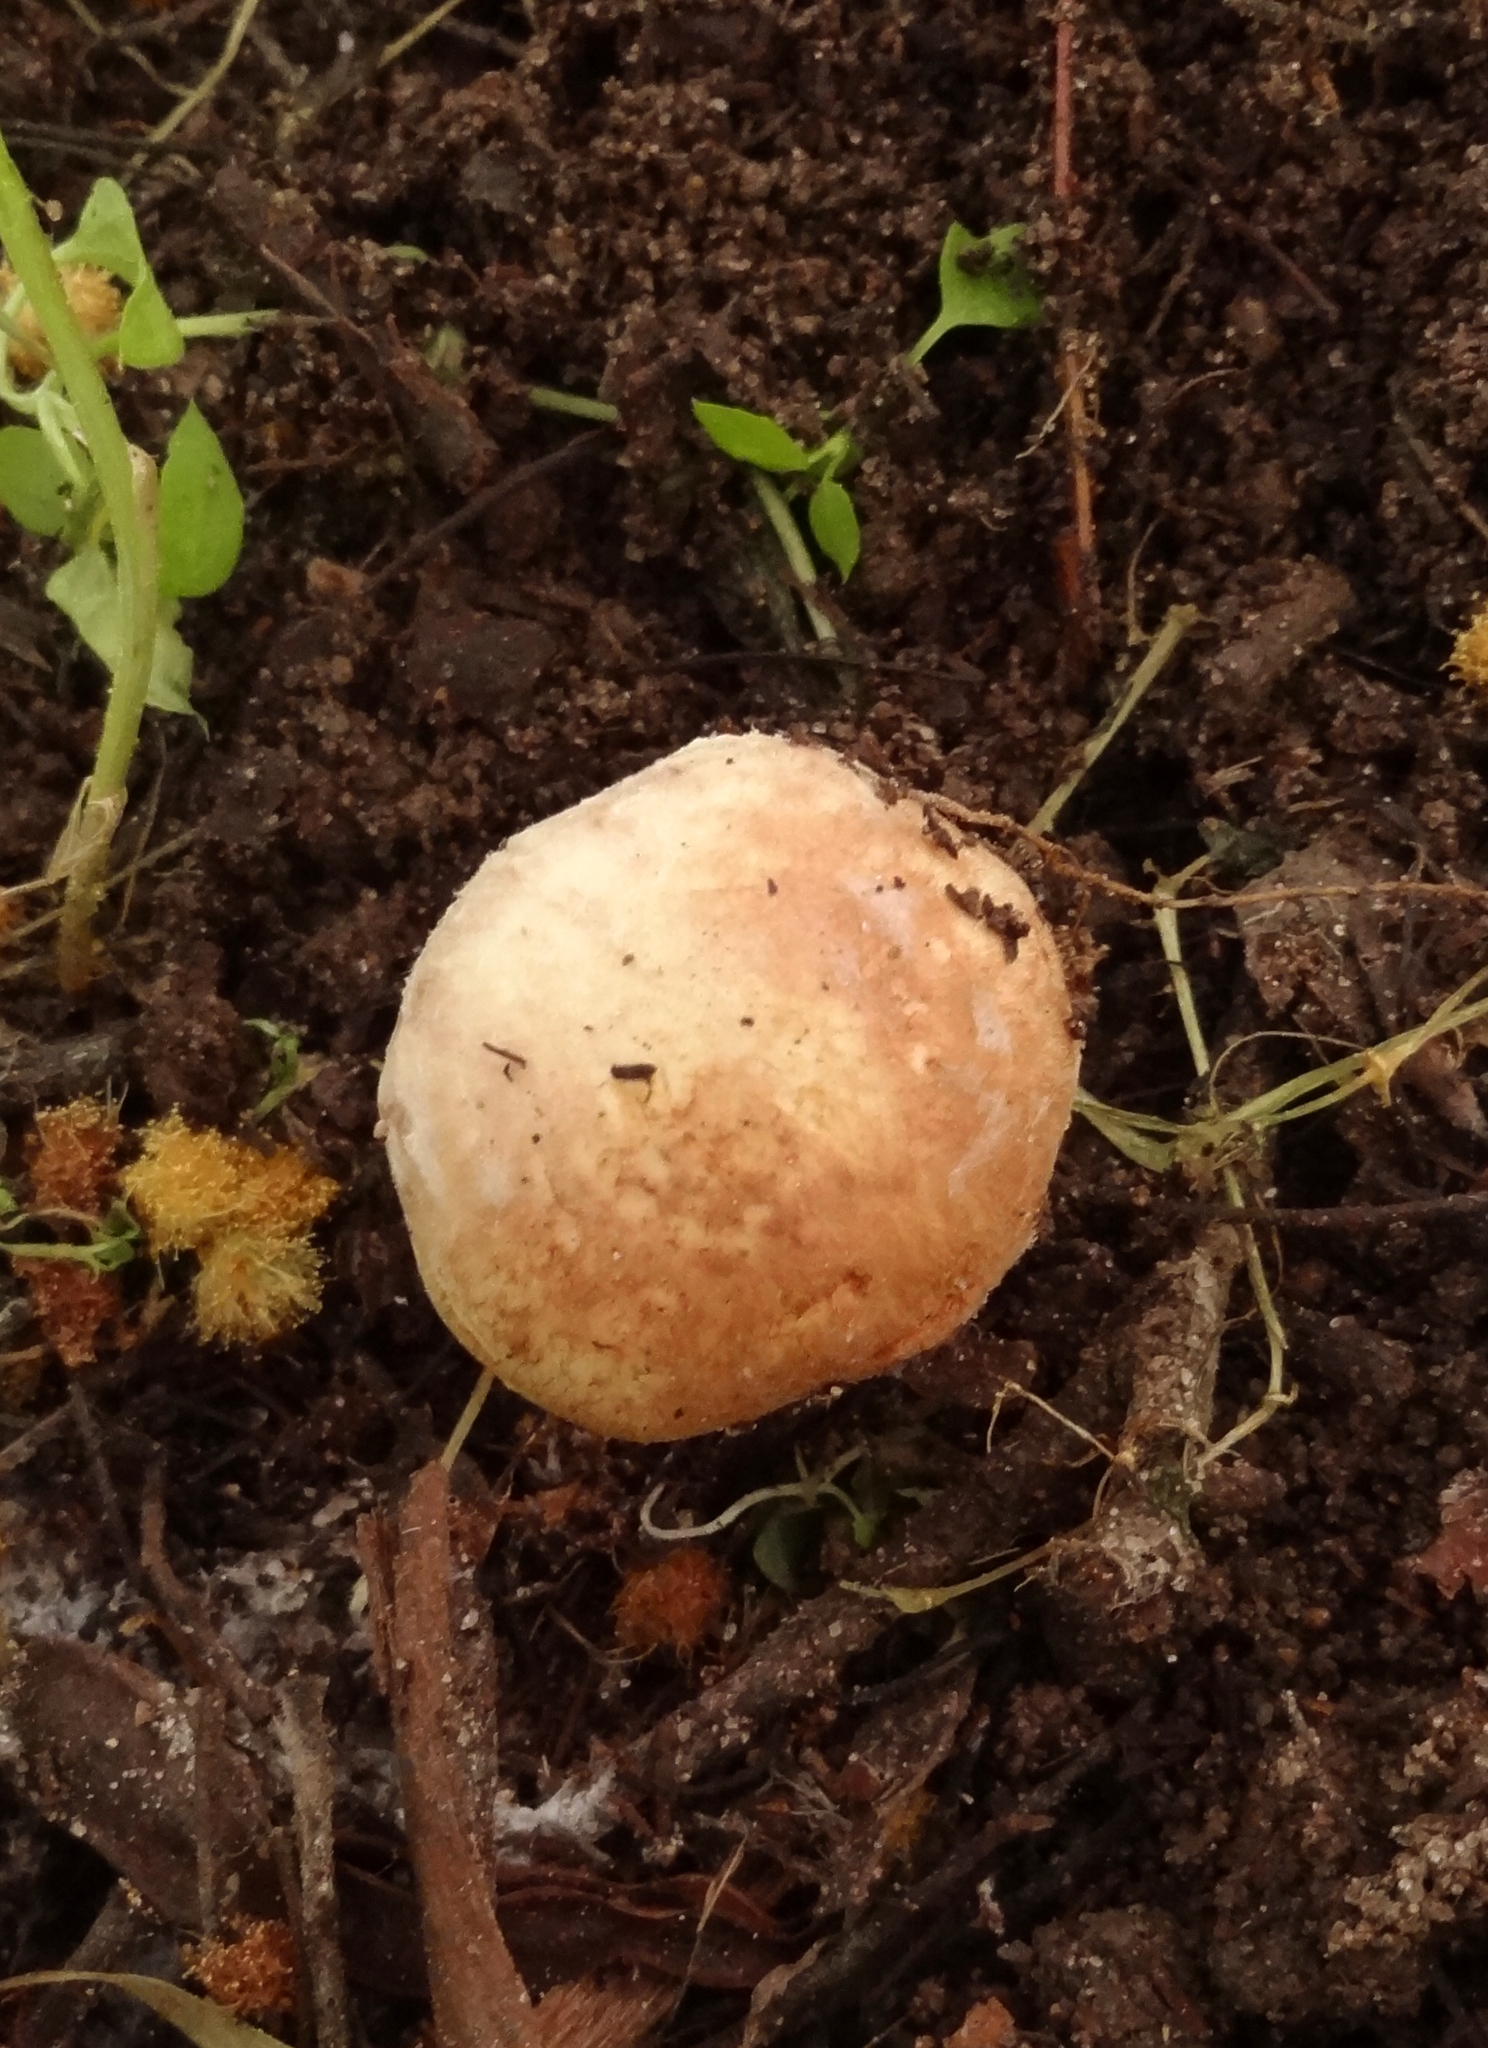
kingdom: Fungi
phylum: Basidiomycota
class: Agaricomycetes
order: Agaricales
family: Agaricaceae
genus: Agaricus
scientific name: Agaricus micromegethus
